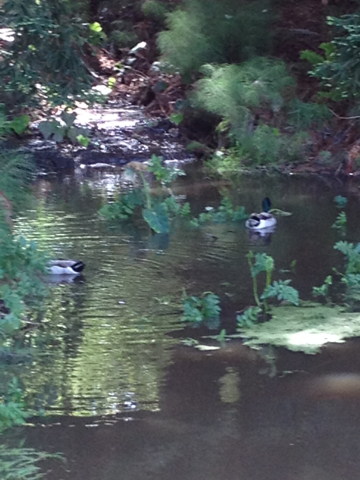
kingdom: Animalia
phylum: Chordata
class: Aves
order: Anseriformes
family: Anatidae
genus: Anas
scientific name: Anas platyrhynchos
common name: Mallard
